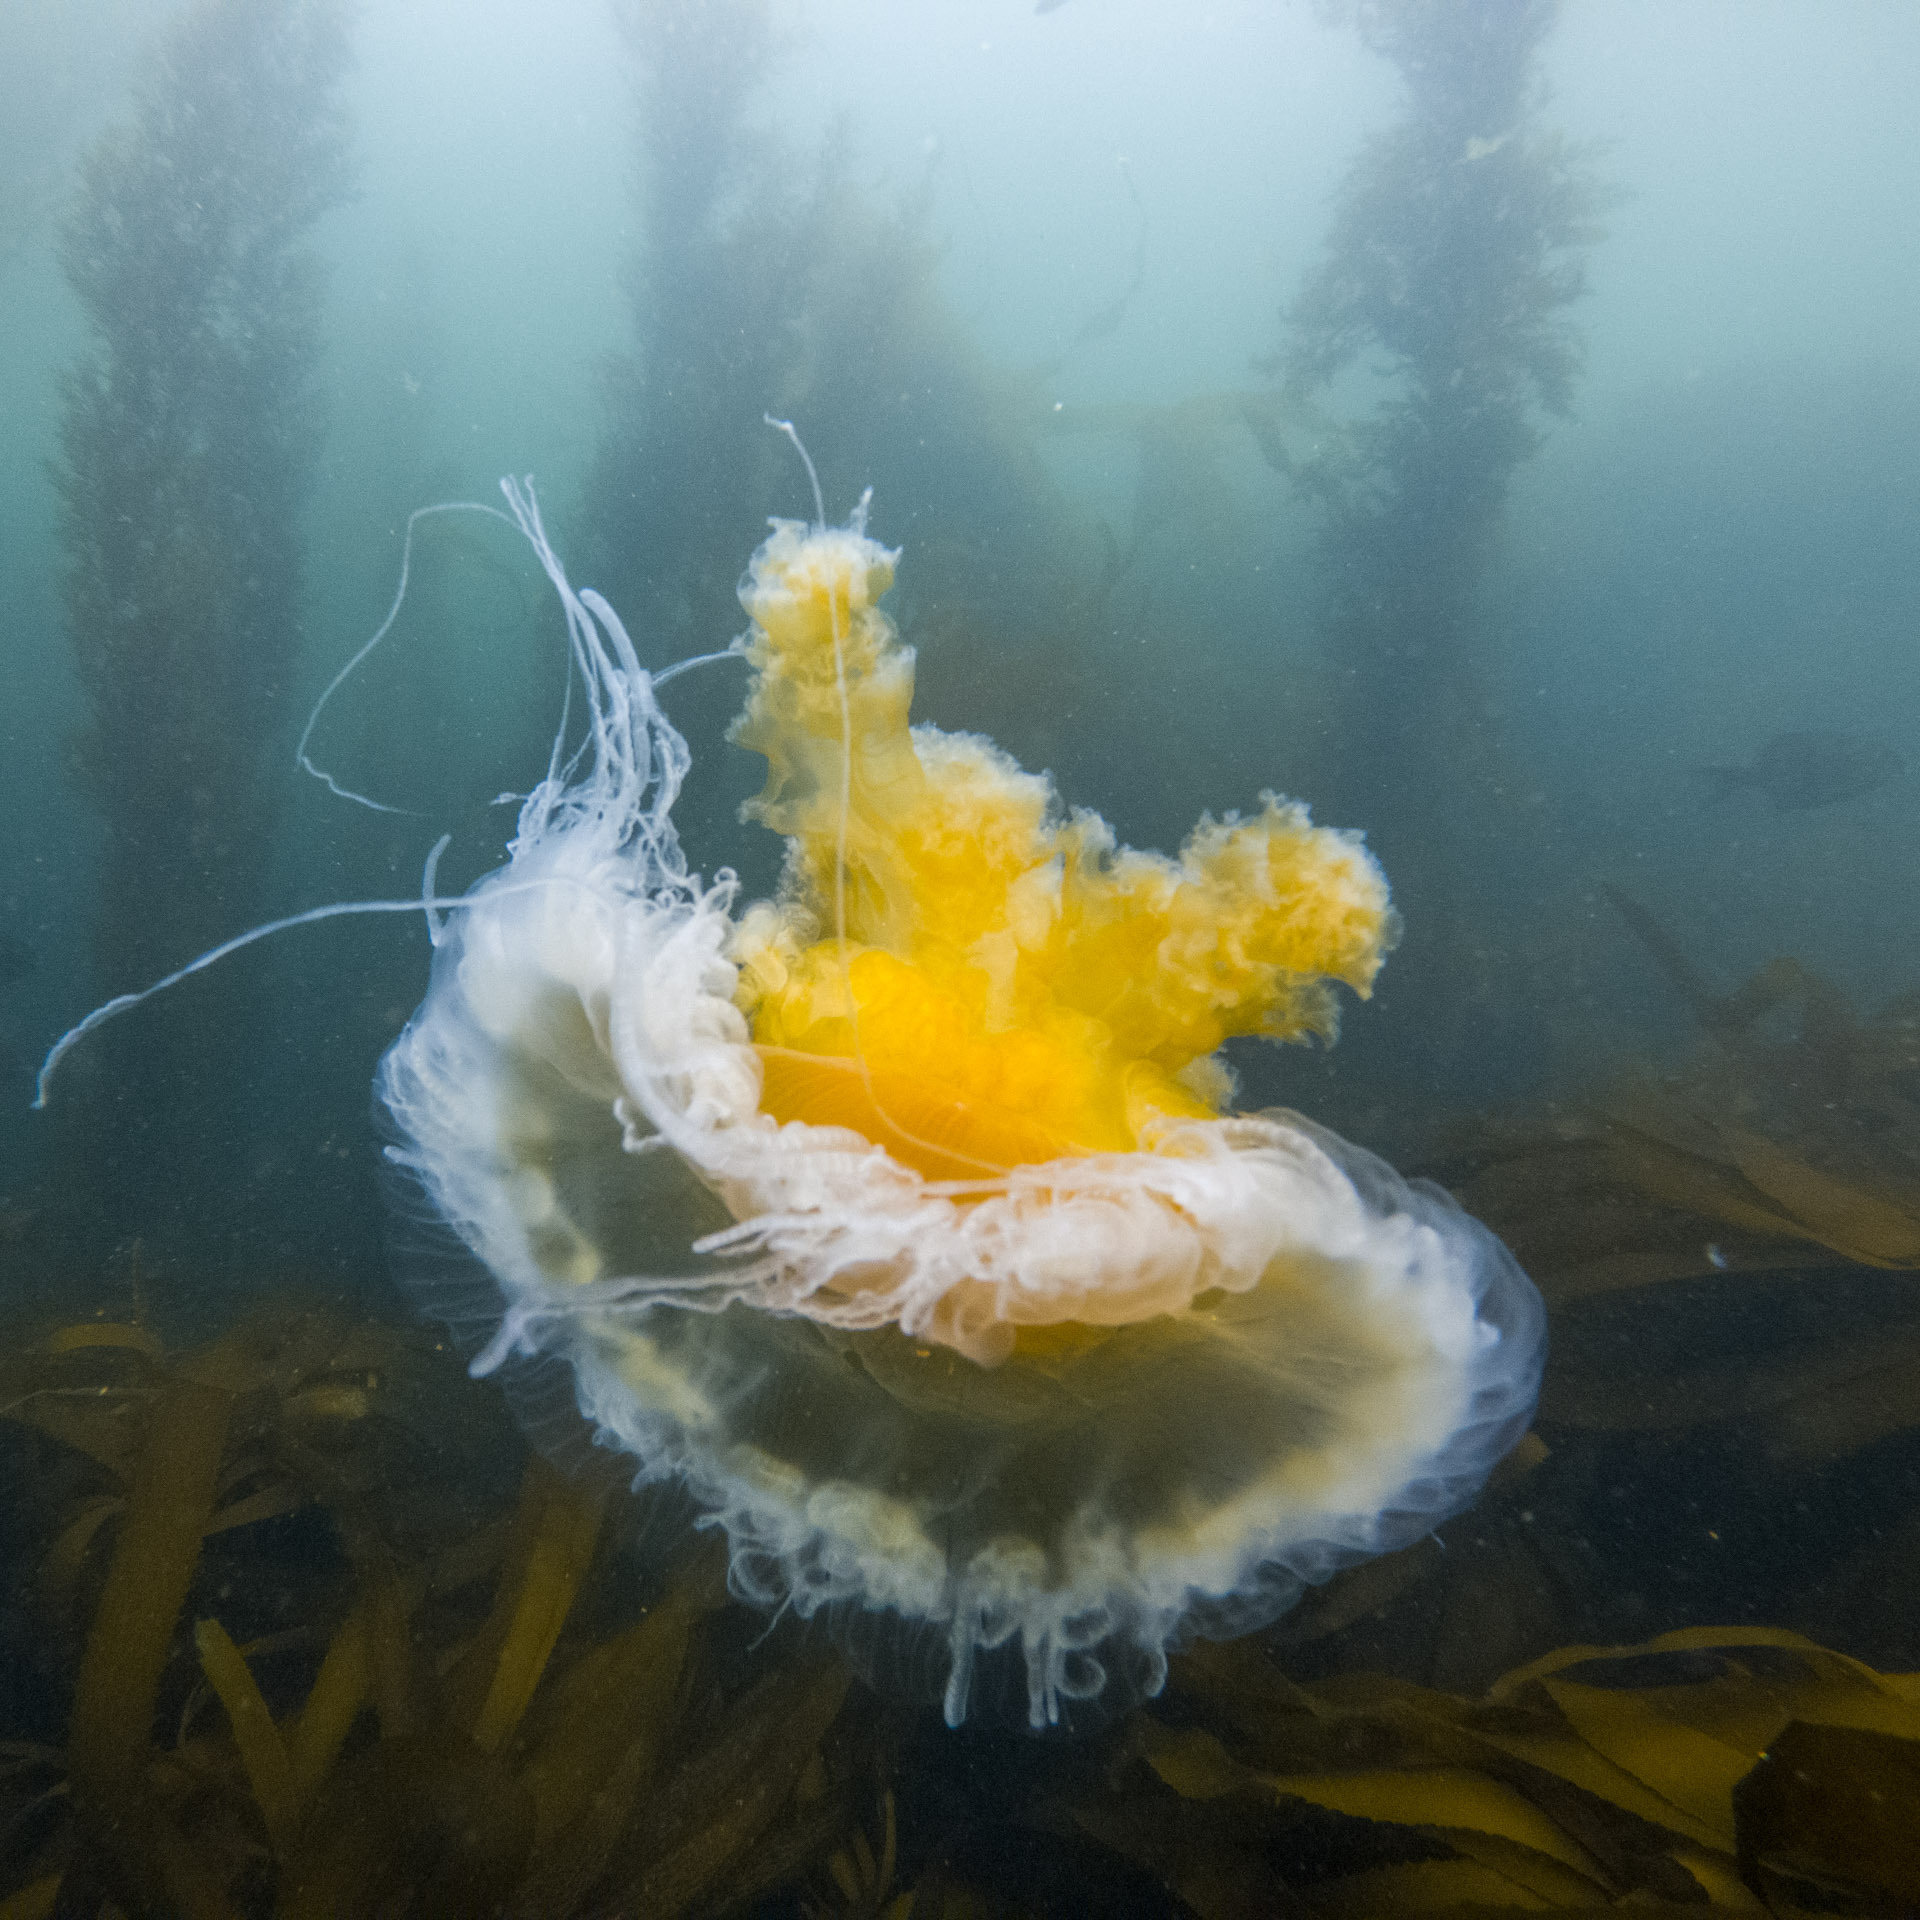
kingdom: Animalia
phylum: Cnidaria
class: Scyphozoa
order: Semaeostomeae
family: Phacellophoridae
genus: Phacellophora
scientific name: Phacellophora camtschatica
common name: Fried-egg jellyfish
